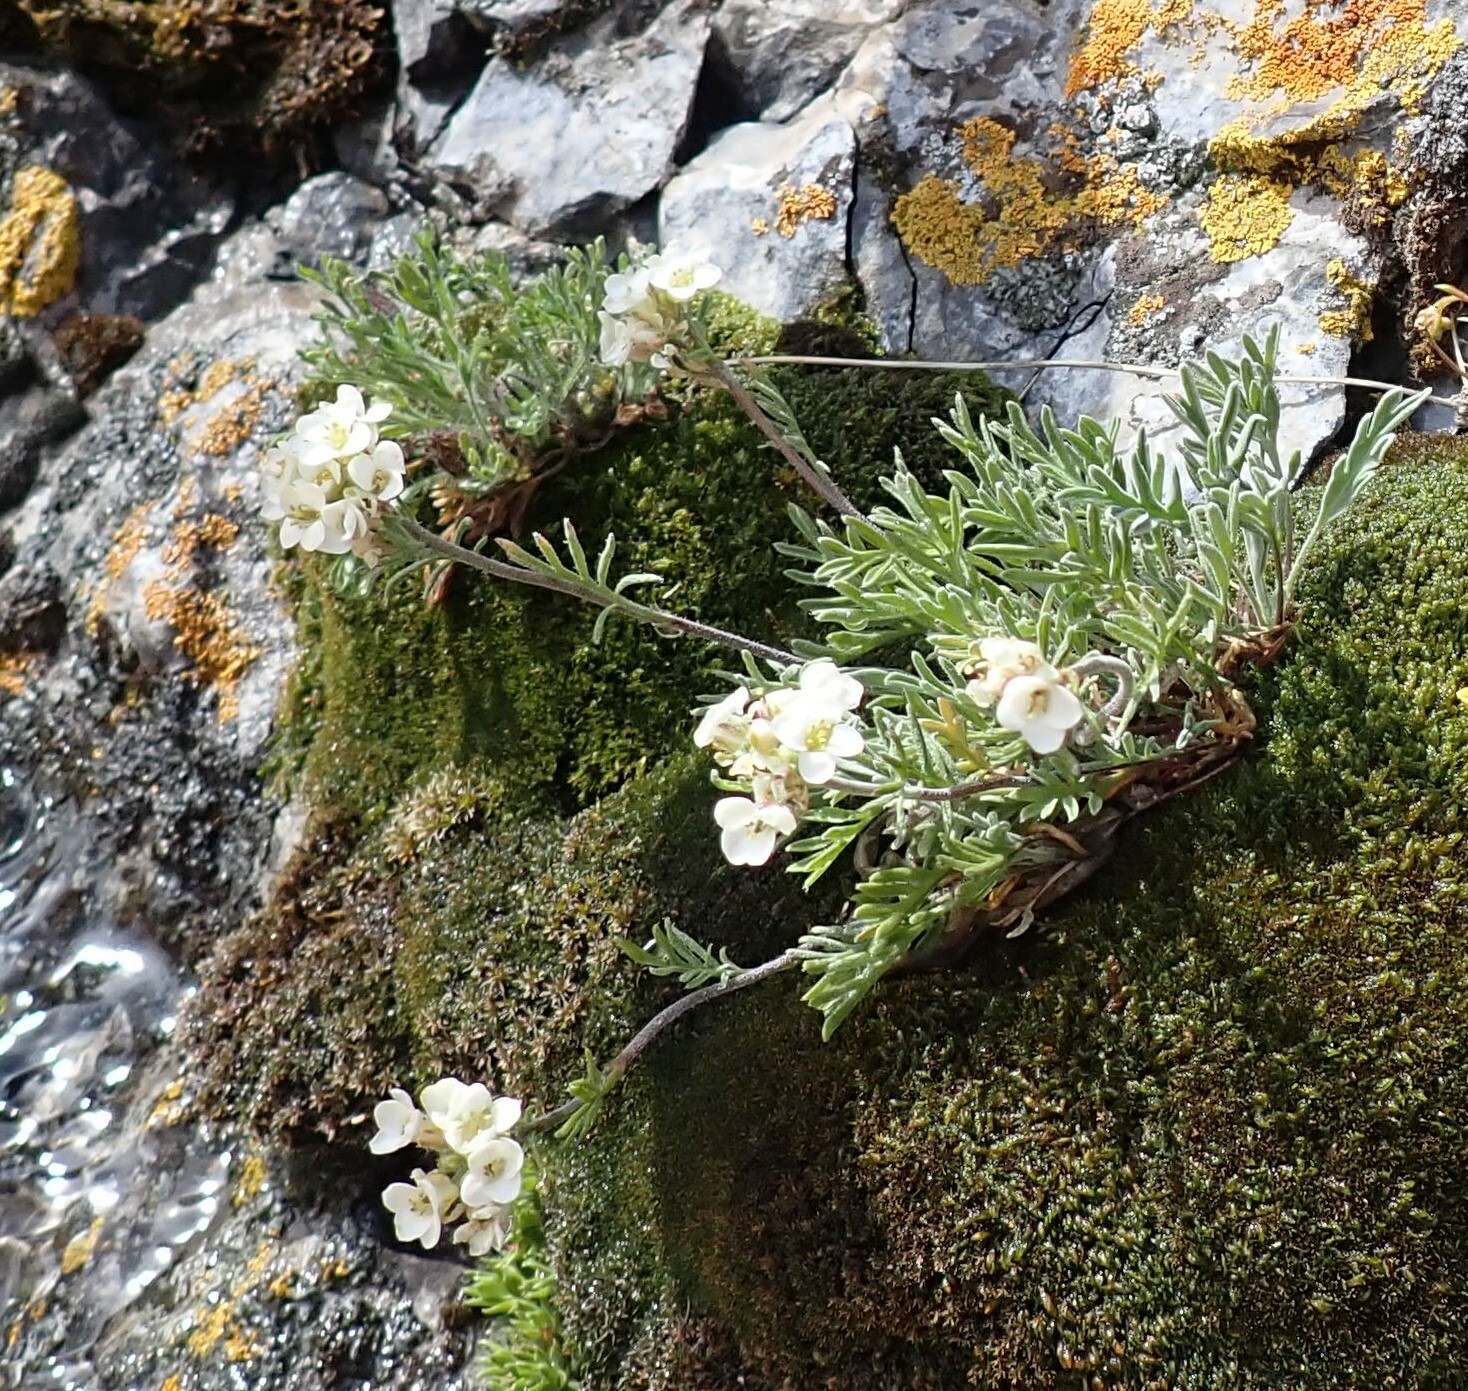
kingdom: Plantae
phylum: Tracheophyta
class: Magnoliopsida
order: Brassicales
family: Brassicaceae
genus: Smelowskia
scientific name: Smelowskia americana
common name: American false candytuft
